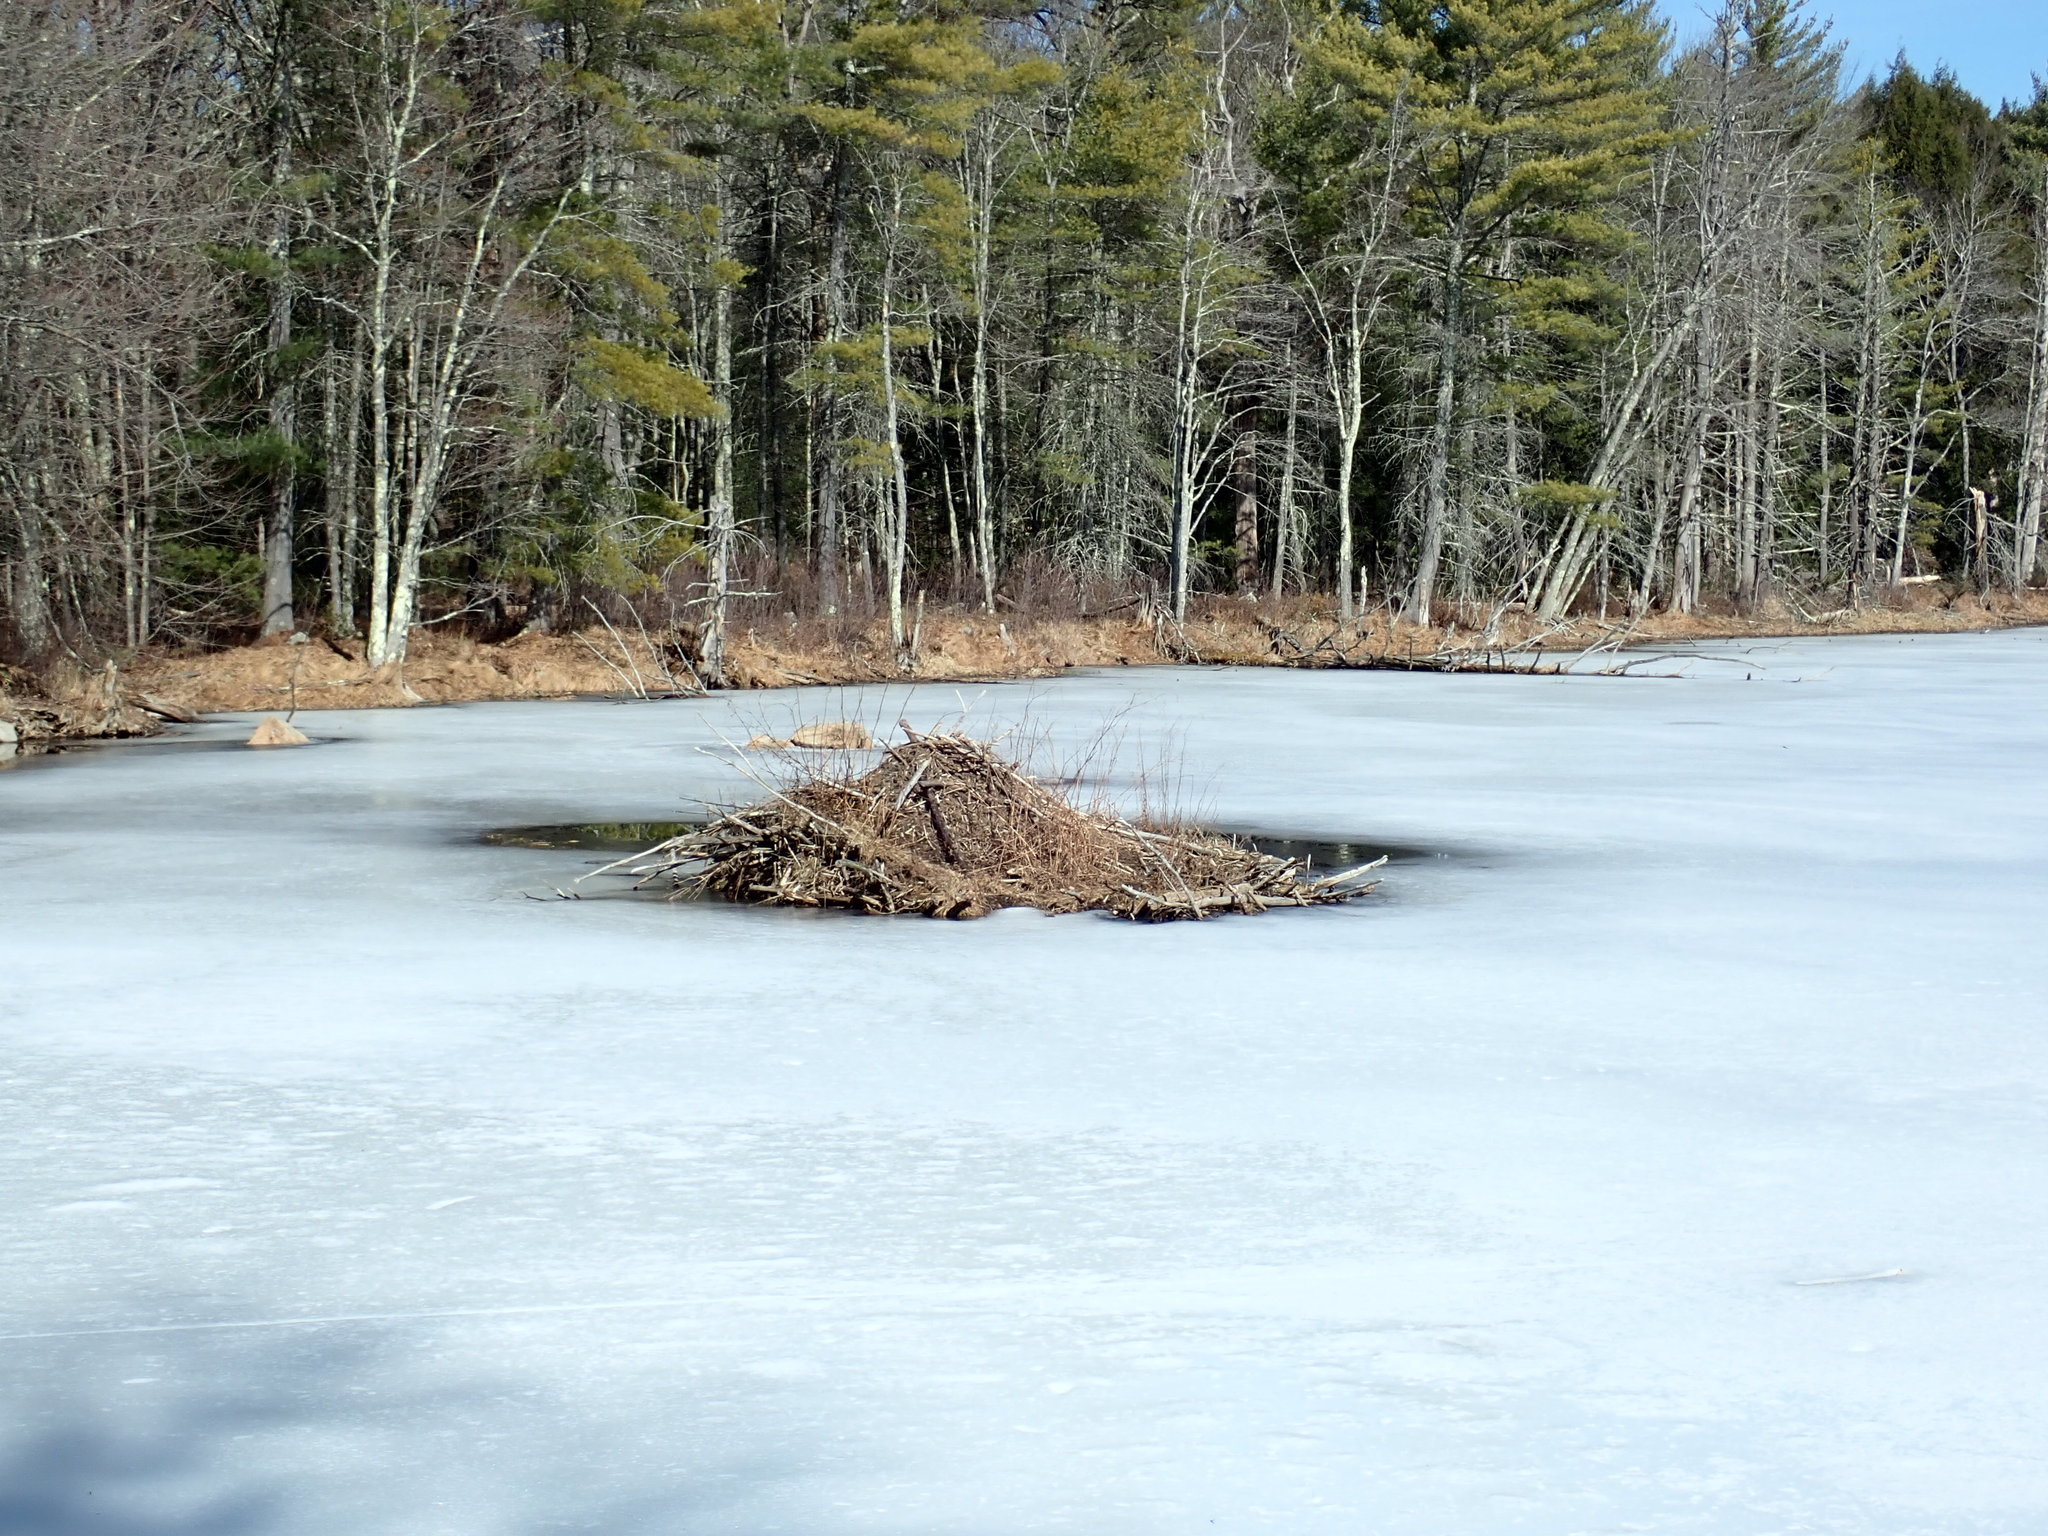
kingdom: Animalia
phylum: Chordata
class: Mammalia
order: Rodentia
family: Castoridae
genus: Castor
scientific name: Castor canadensis
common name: American beaver
